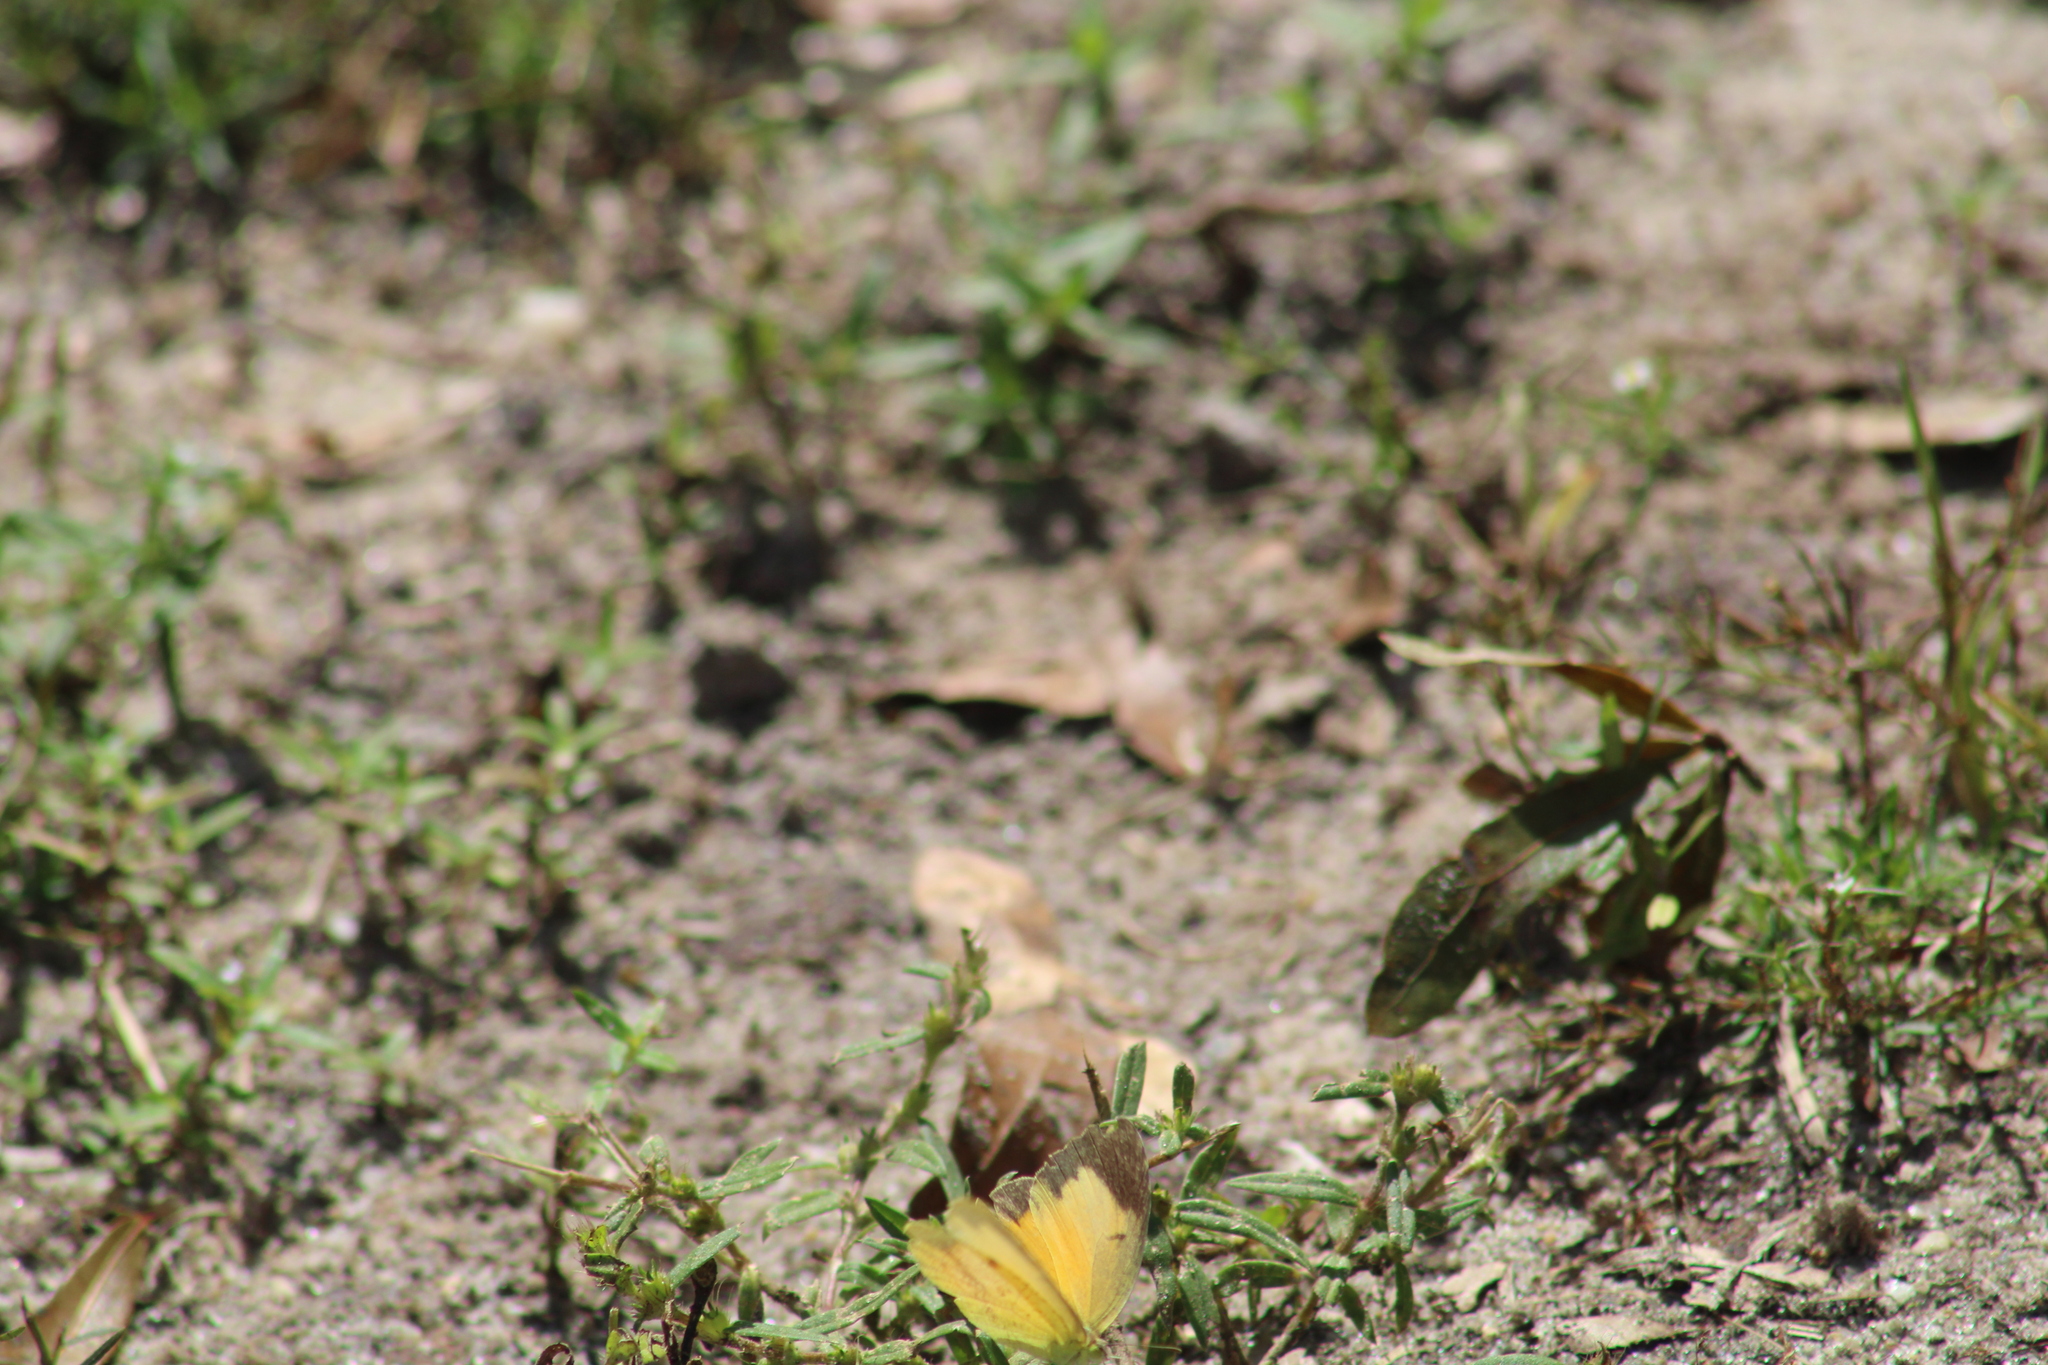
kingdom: Animalia
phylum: Arthropoda
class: Insecta
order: Lepidoptera
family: Pieridae
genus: Abaeis
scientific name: Abaeis nicippe
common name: Sleepy orange
